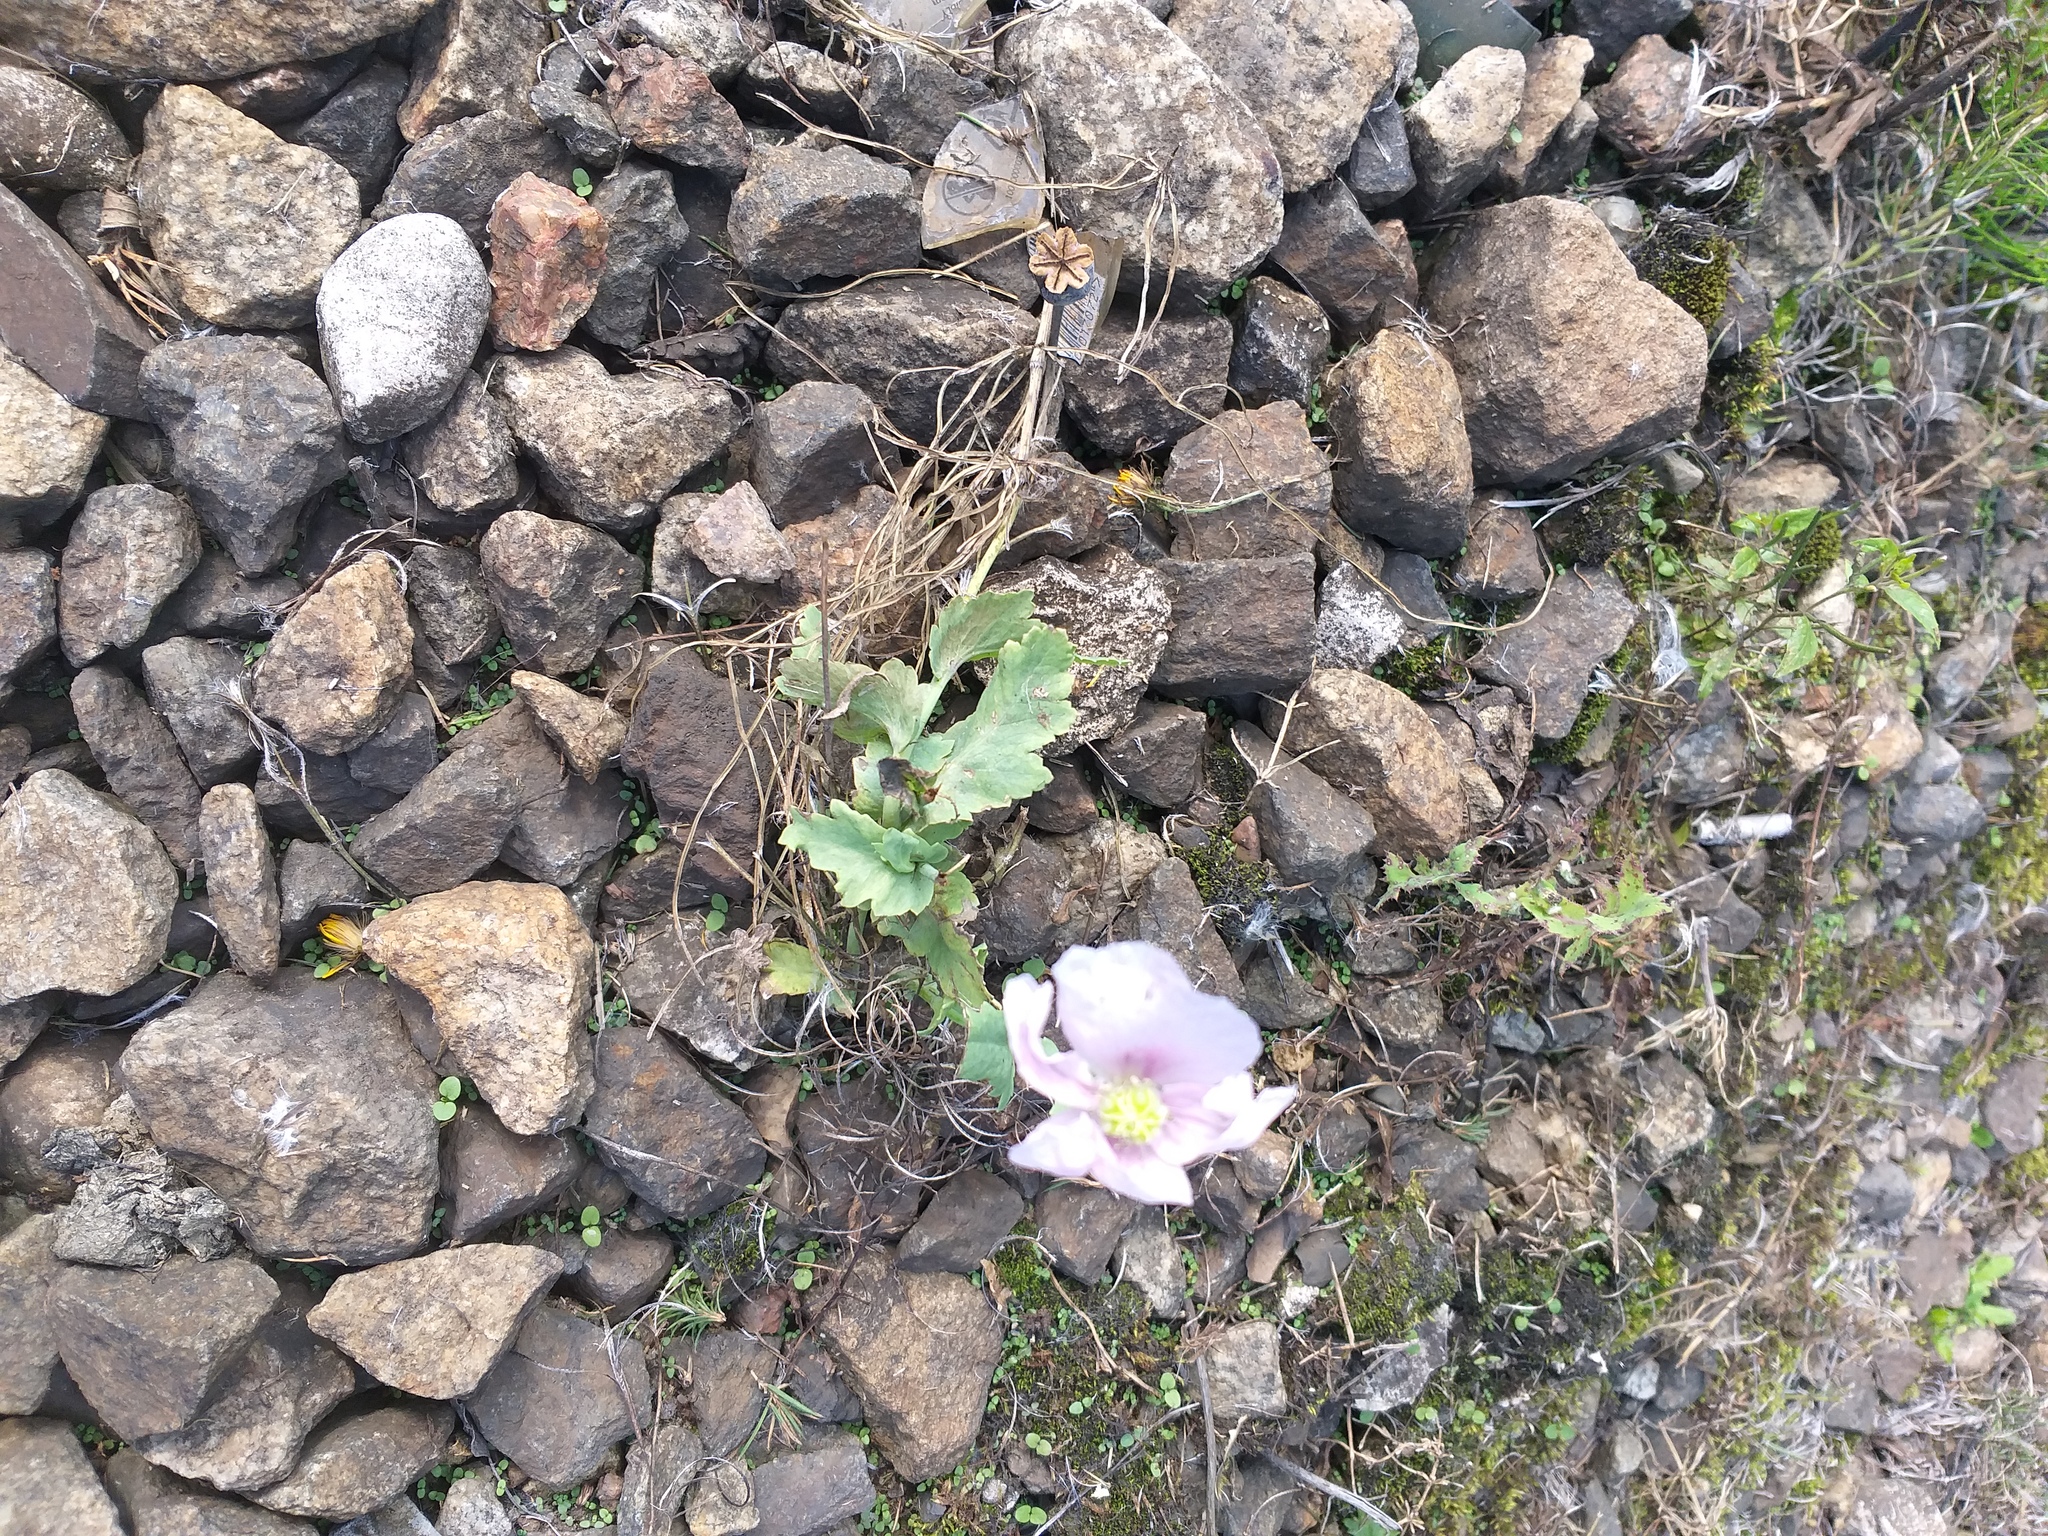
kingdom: Plantae
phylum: Tracheophyta
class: Magnoliopsida
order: Ranunculales
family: Papaveraceae
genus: Papaver
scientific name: Papaver somniferum
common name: Opium poppy
